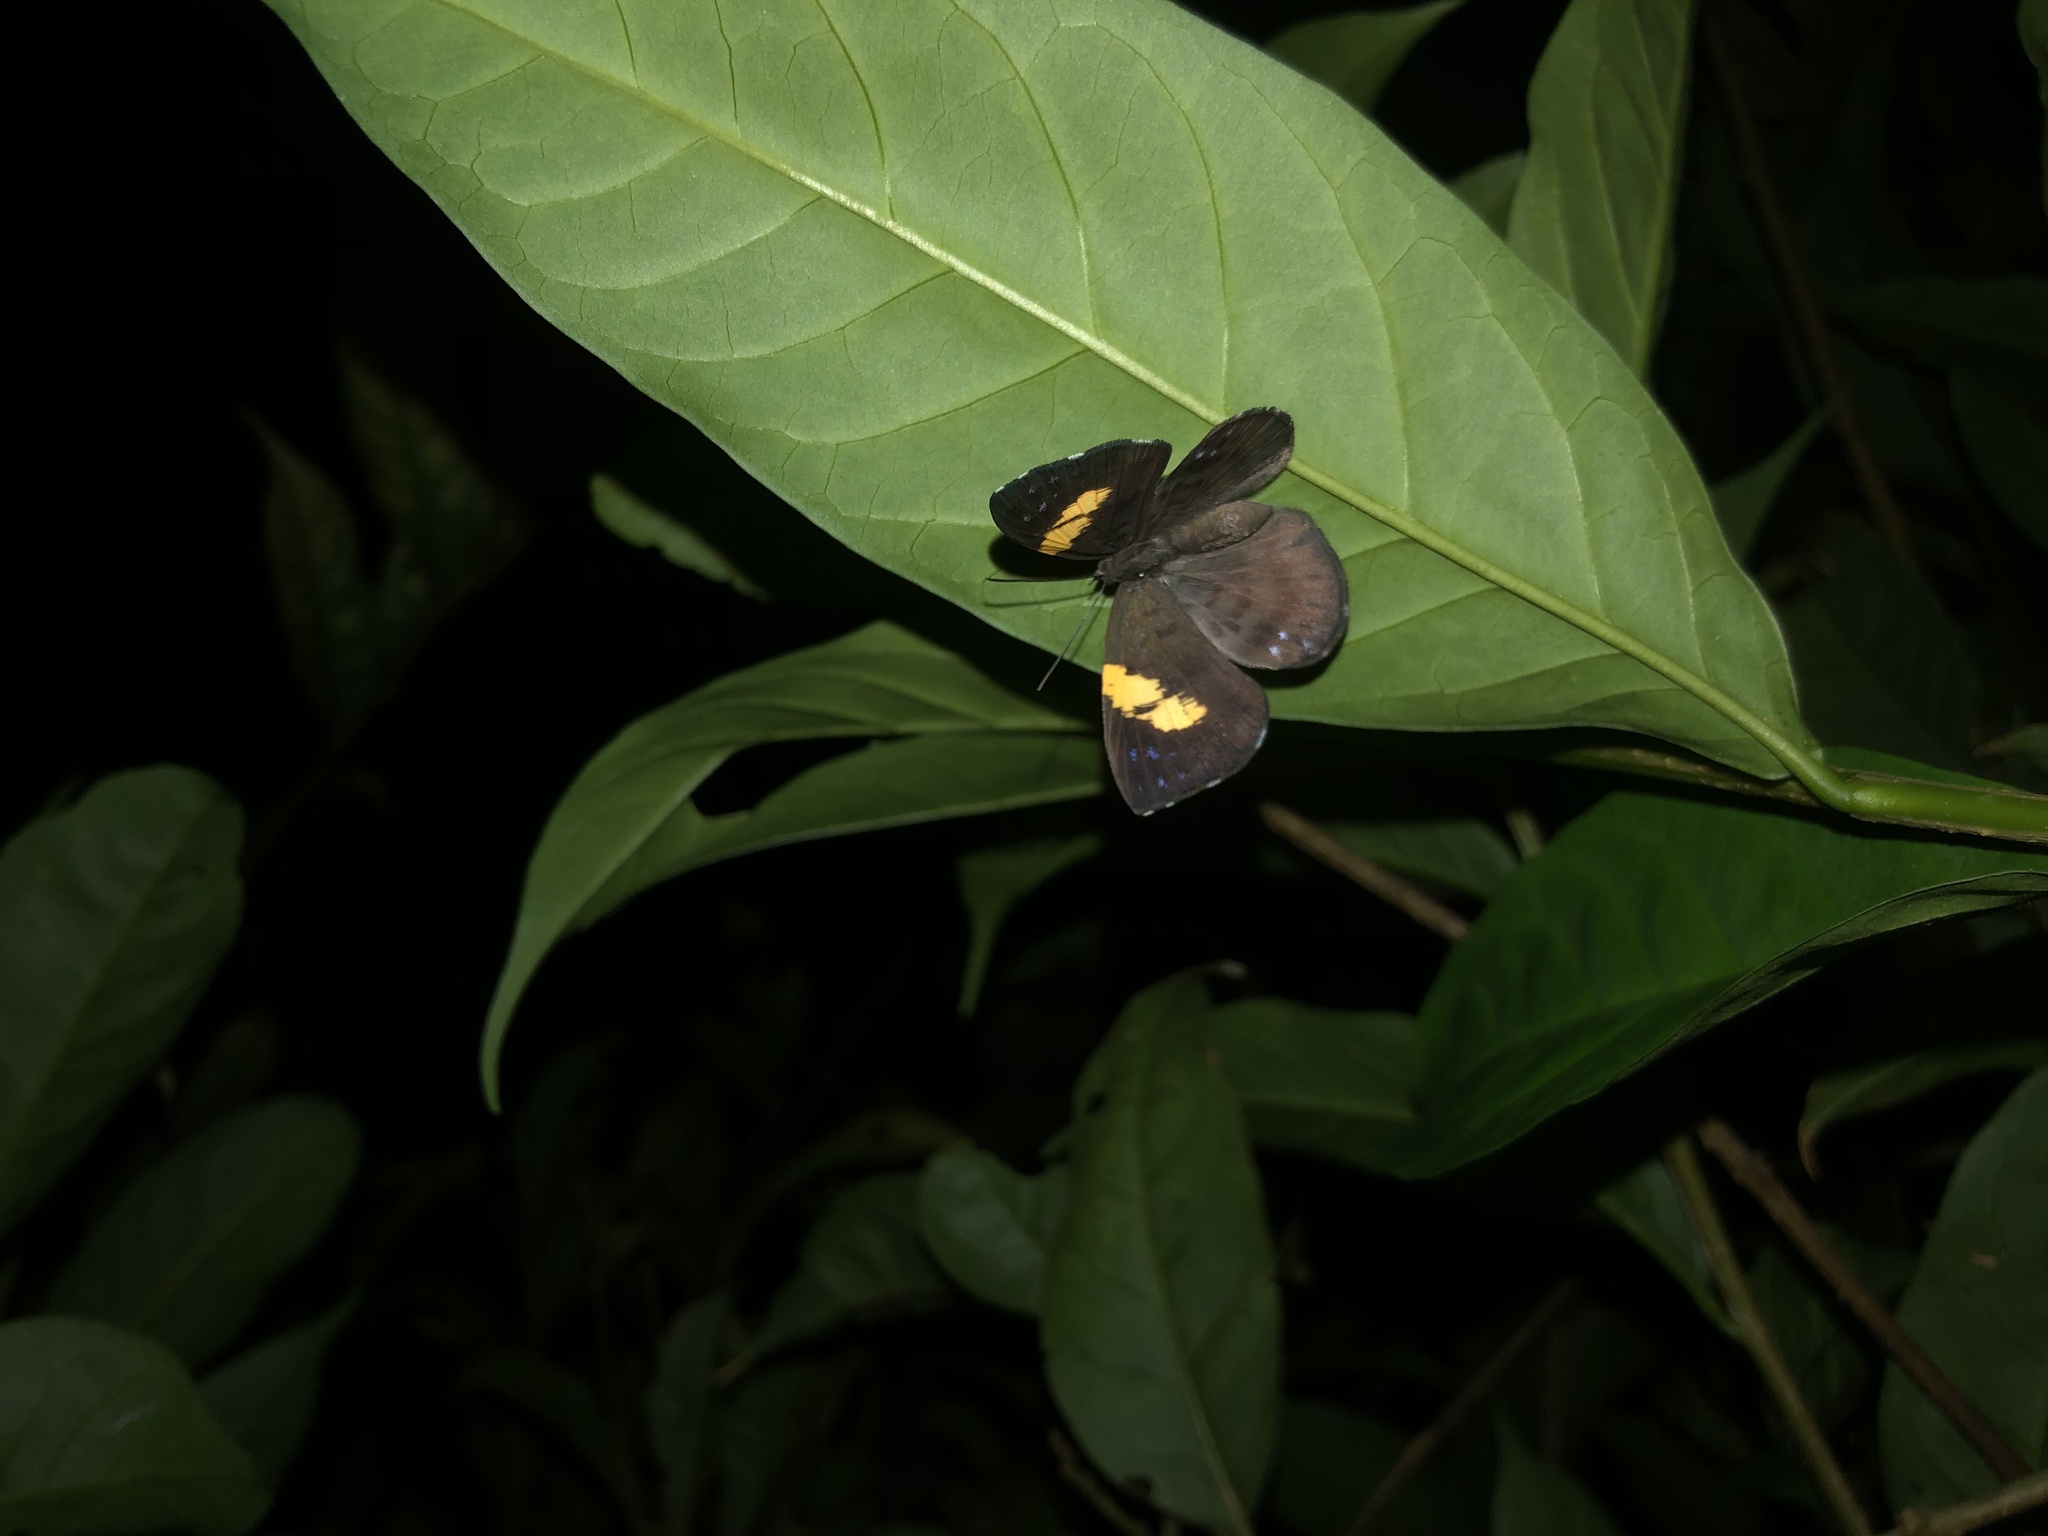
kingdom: Animalia
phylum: Arthropoda
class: Insecta
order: Lepidoptera
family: Riodinidae
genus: Hypophylla
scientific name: Hypophylla
